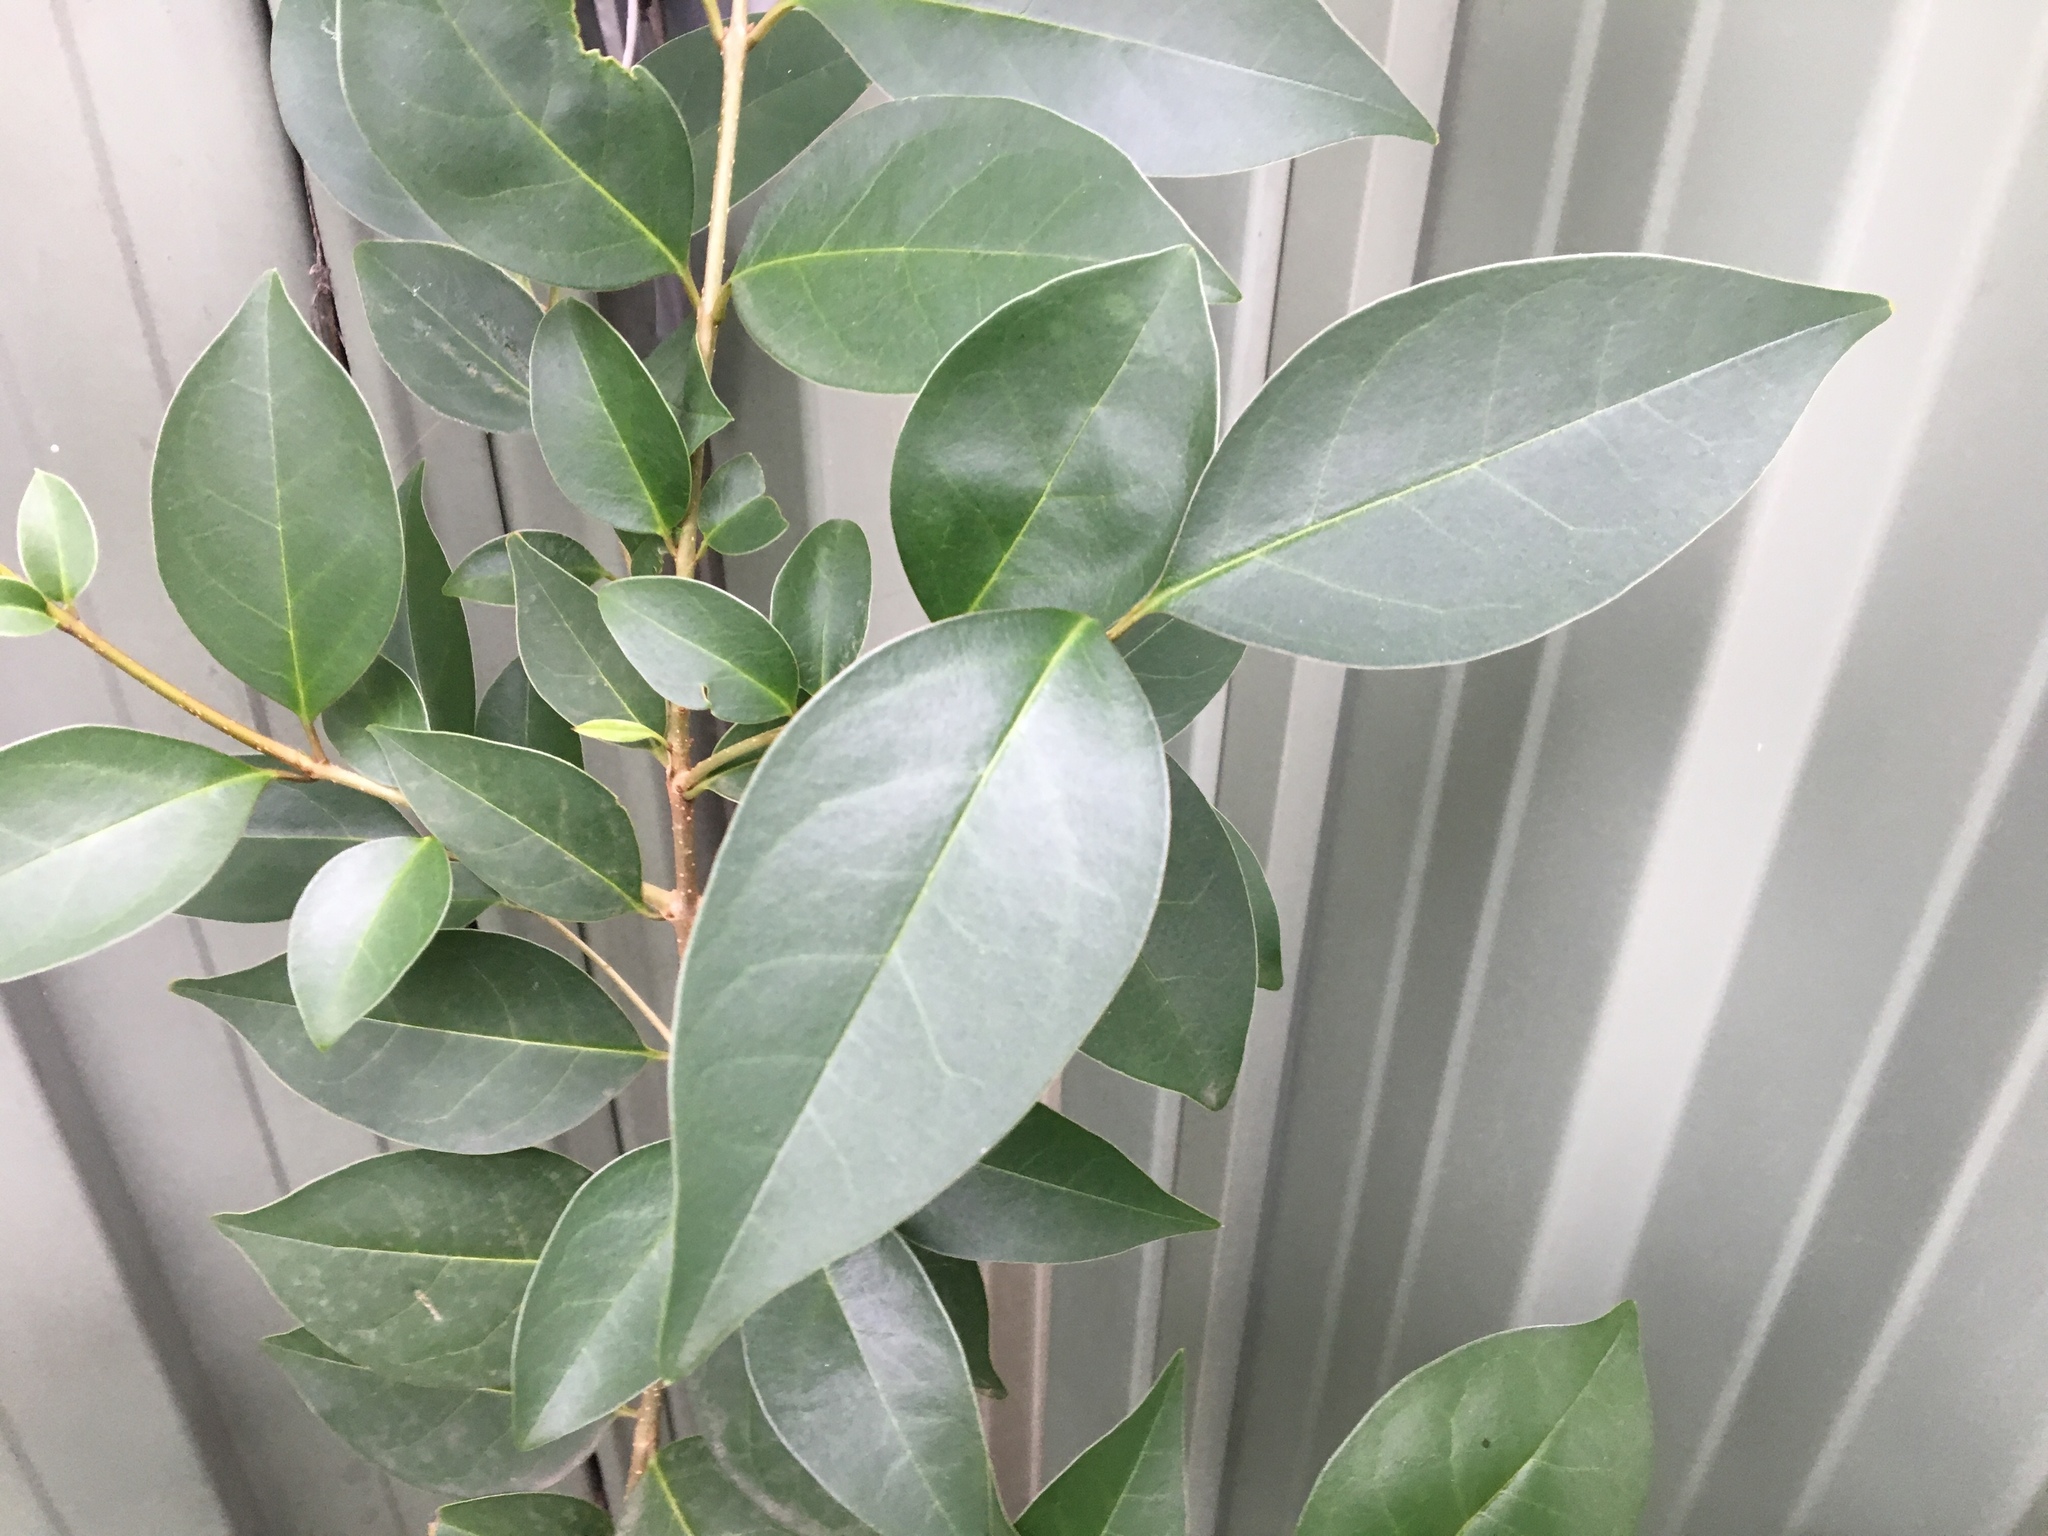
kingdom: Plantae
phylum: Tracheophyta
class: Magnoliopsida
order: Lamiales
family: Oleaceae
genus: Ligustrum
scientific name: Ligustrum lucidum
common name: Glossy privet
